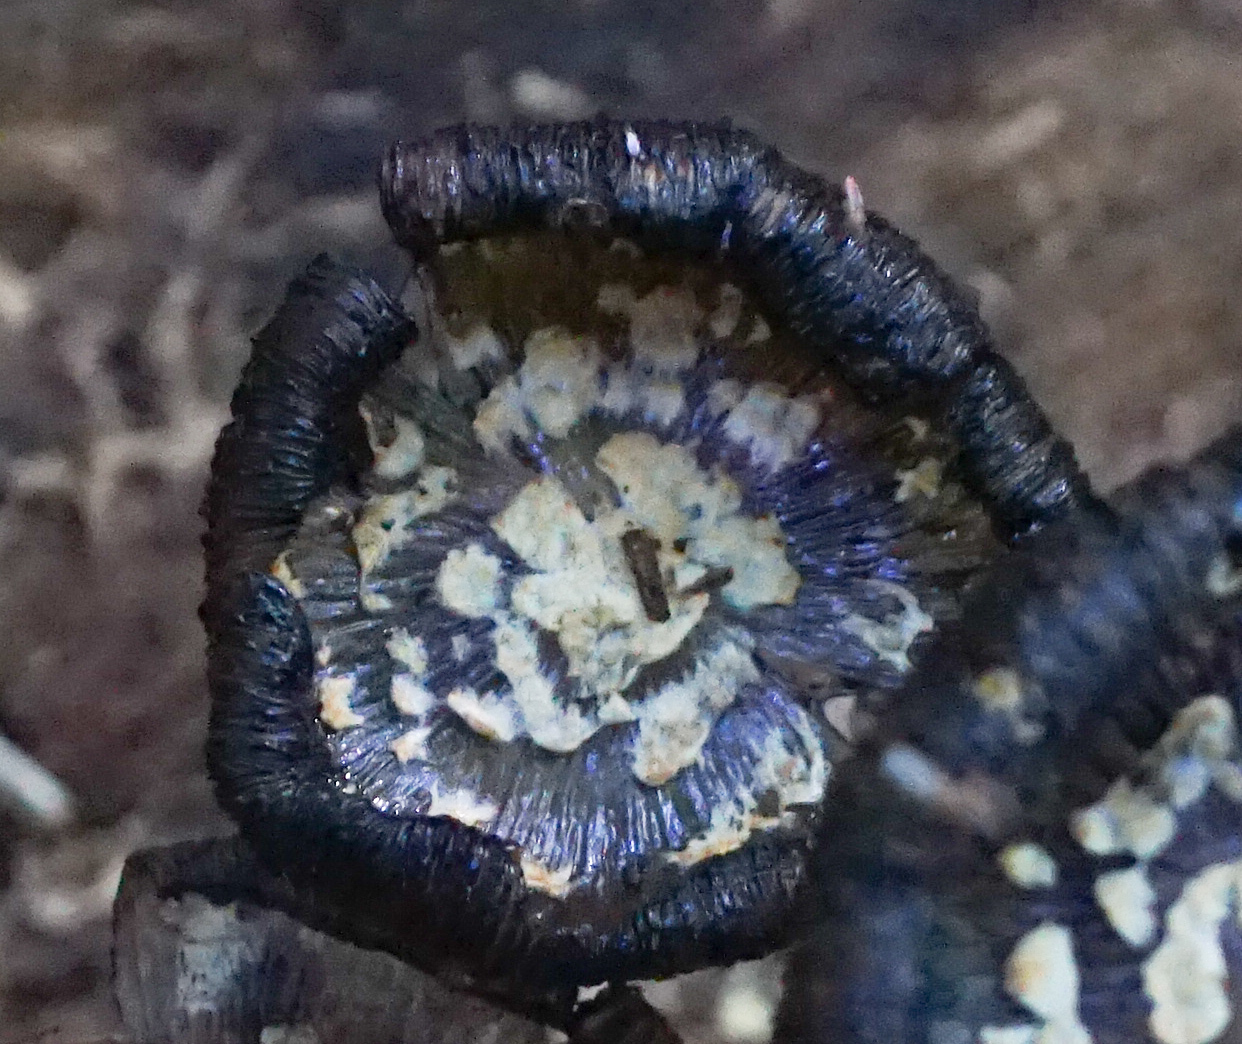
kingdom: Fungi
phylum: Basidiomycota
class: Agaricomycetes
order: Agaricales
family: Psathyrellaceae
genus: Coprinopsis
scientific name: Coprinopsis variegata
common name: Scaly ink cap
